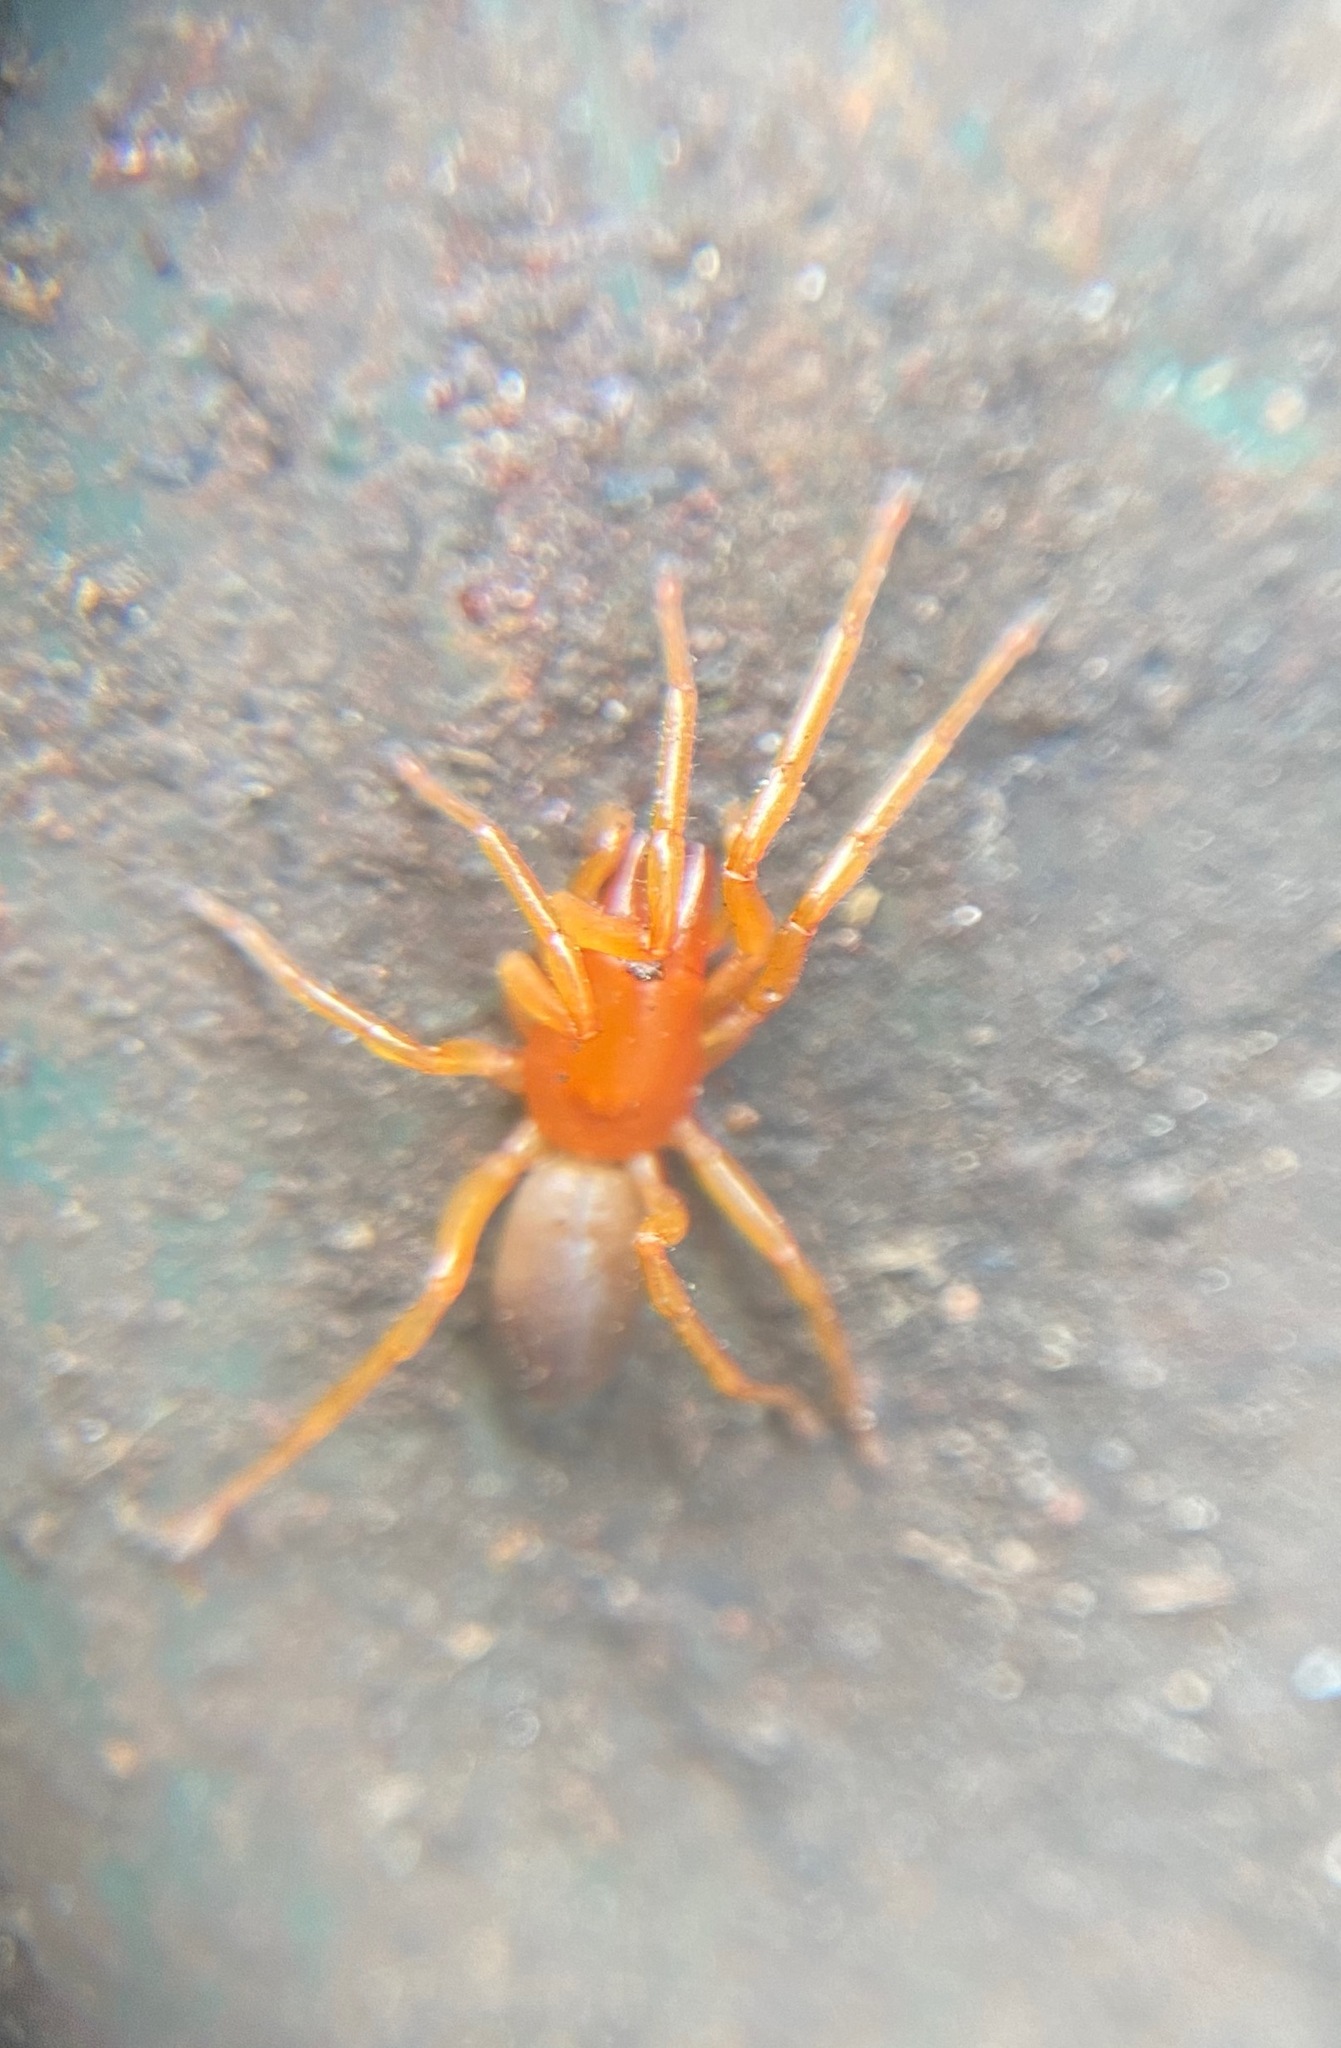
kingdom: Animalia
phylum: Arthropoda
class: Arachnida
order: Araneae
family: Dysderidae
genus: Dysdera
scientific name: Dysdera crocata
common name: Woodlouse spider
